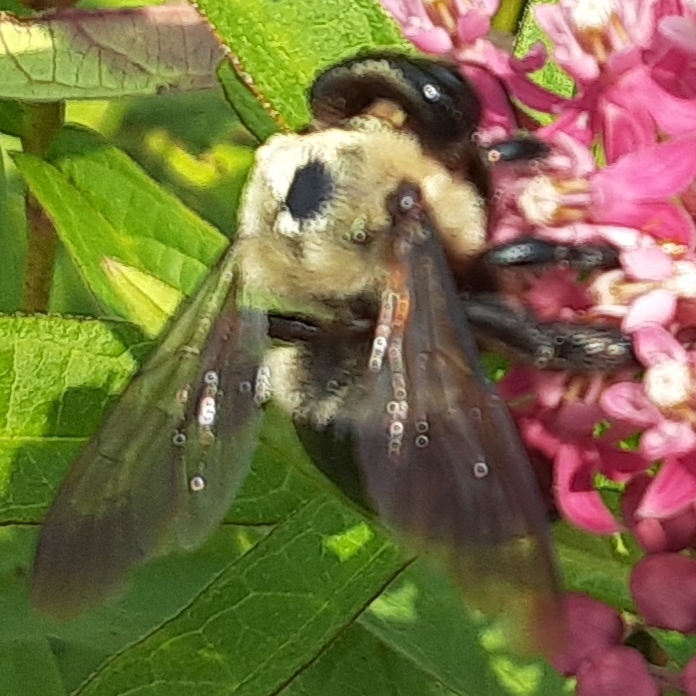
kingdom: Animalia
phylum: Arthropoda
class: Insecta
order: Hymenoptera
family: Apidae
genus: Xylocopa
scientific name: Xylocopa virginica
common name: Carpenter bee
